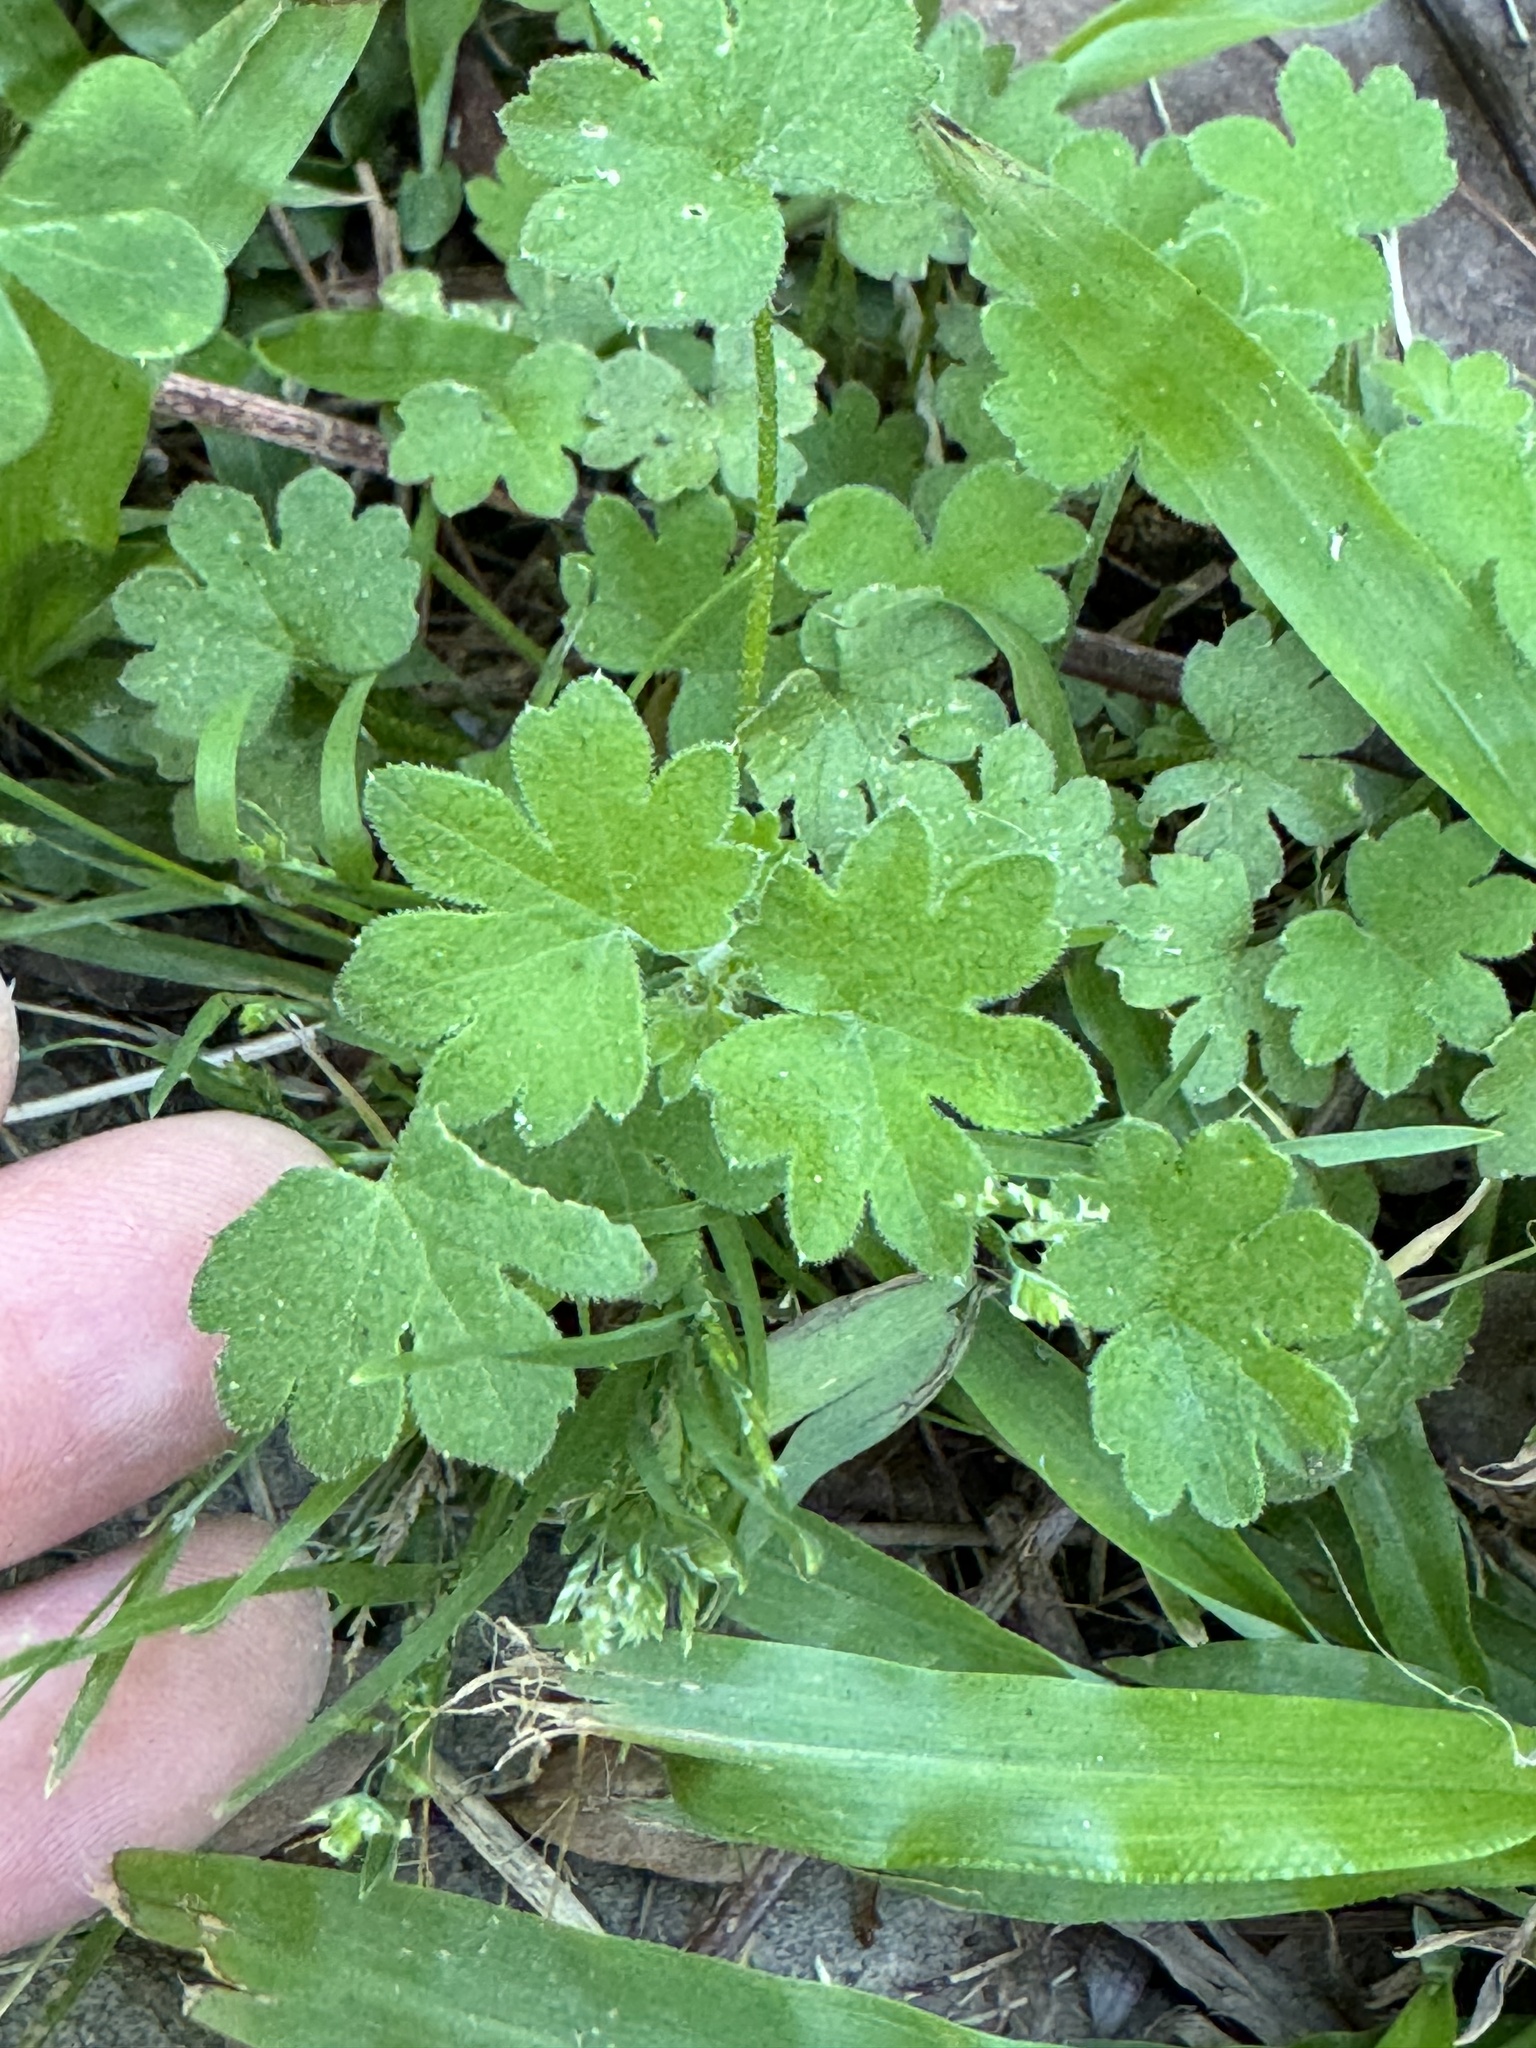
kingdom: Plantae
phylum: Tracheophyta
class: Magnoliopsida
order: Apiales
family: Apiaceae
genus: Bowlesia
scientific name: Bowlesia incana
